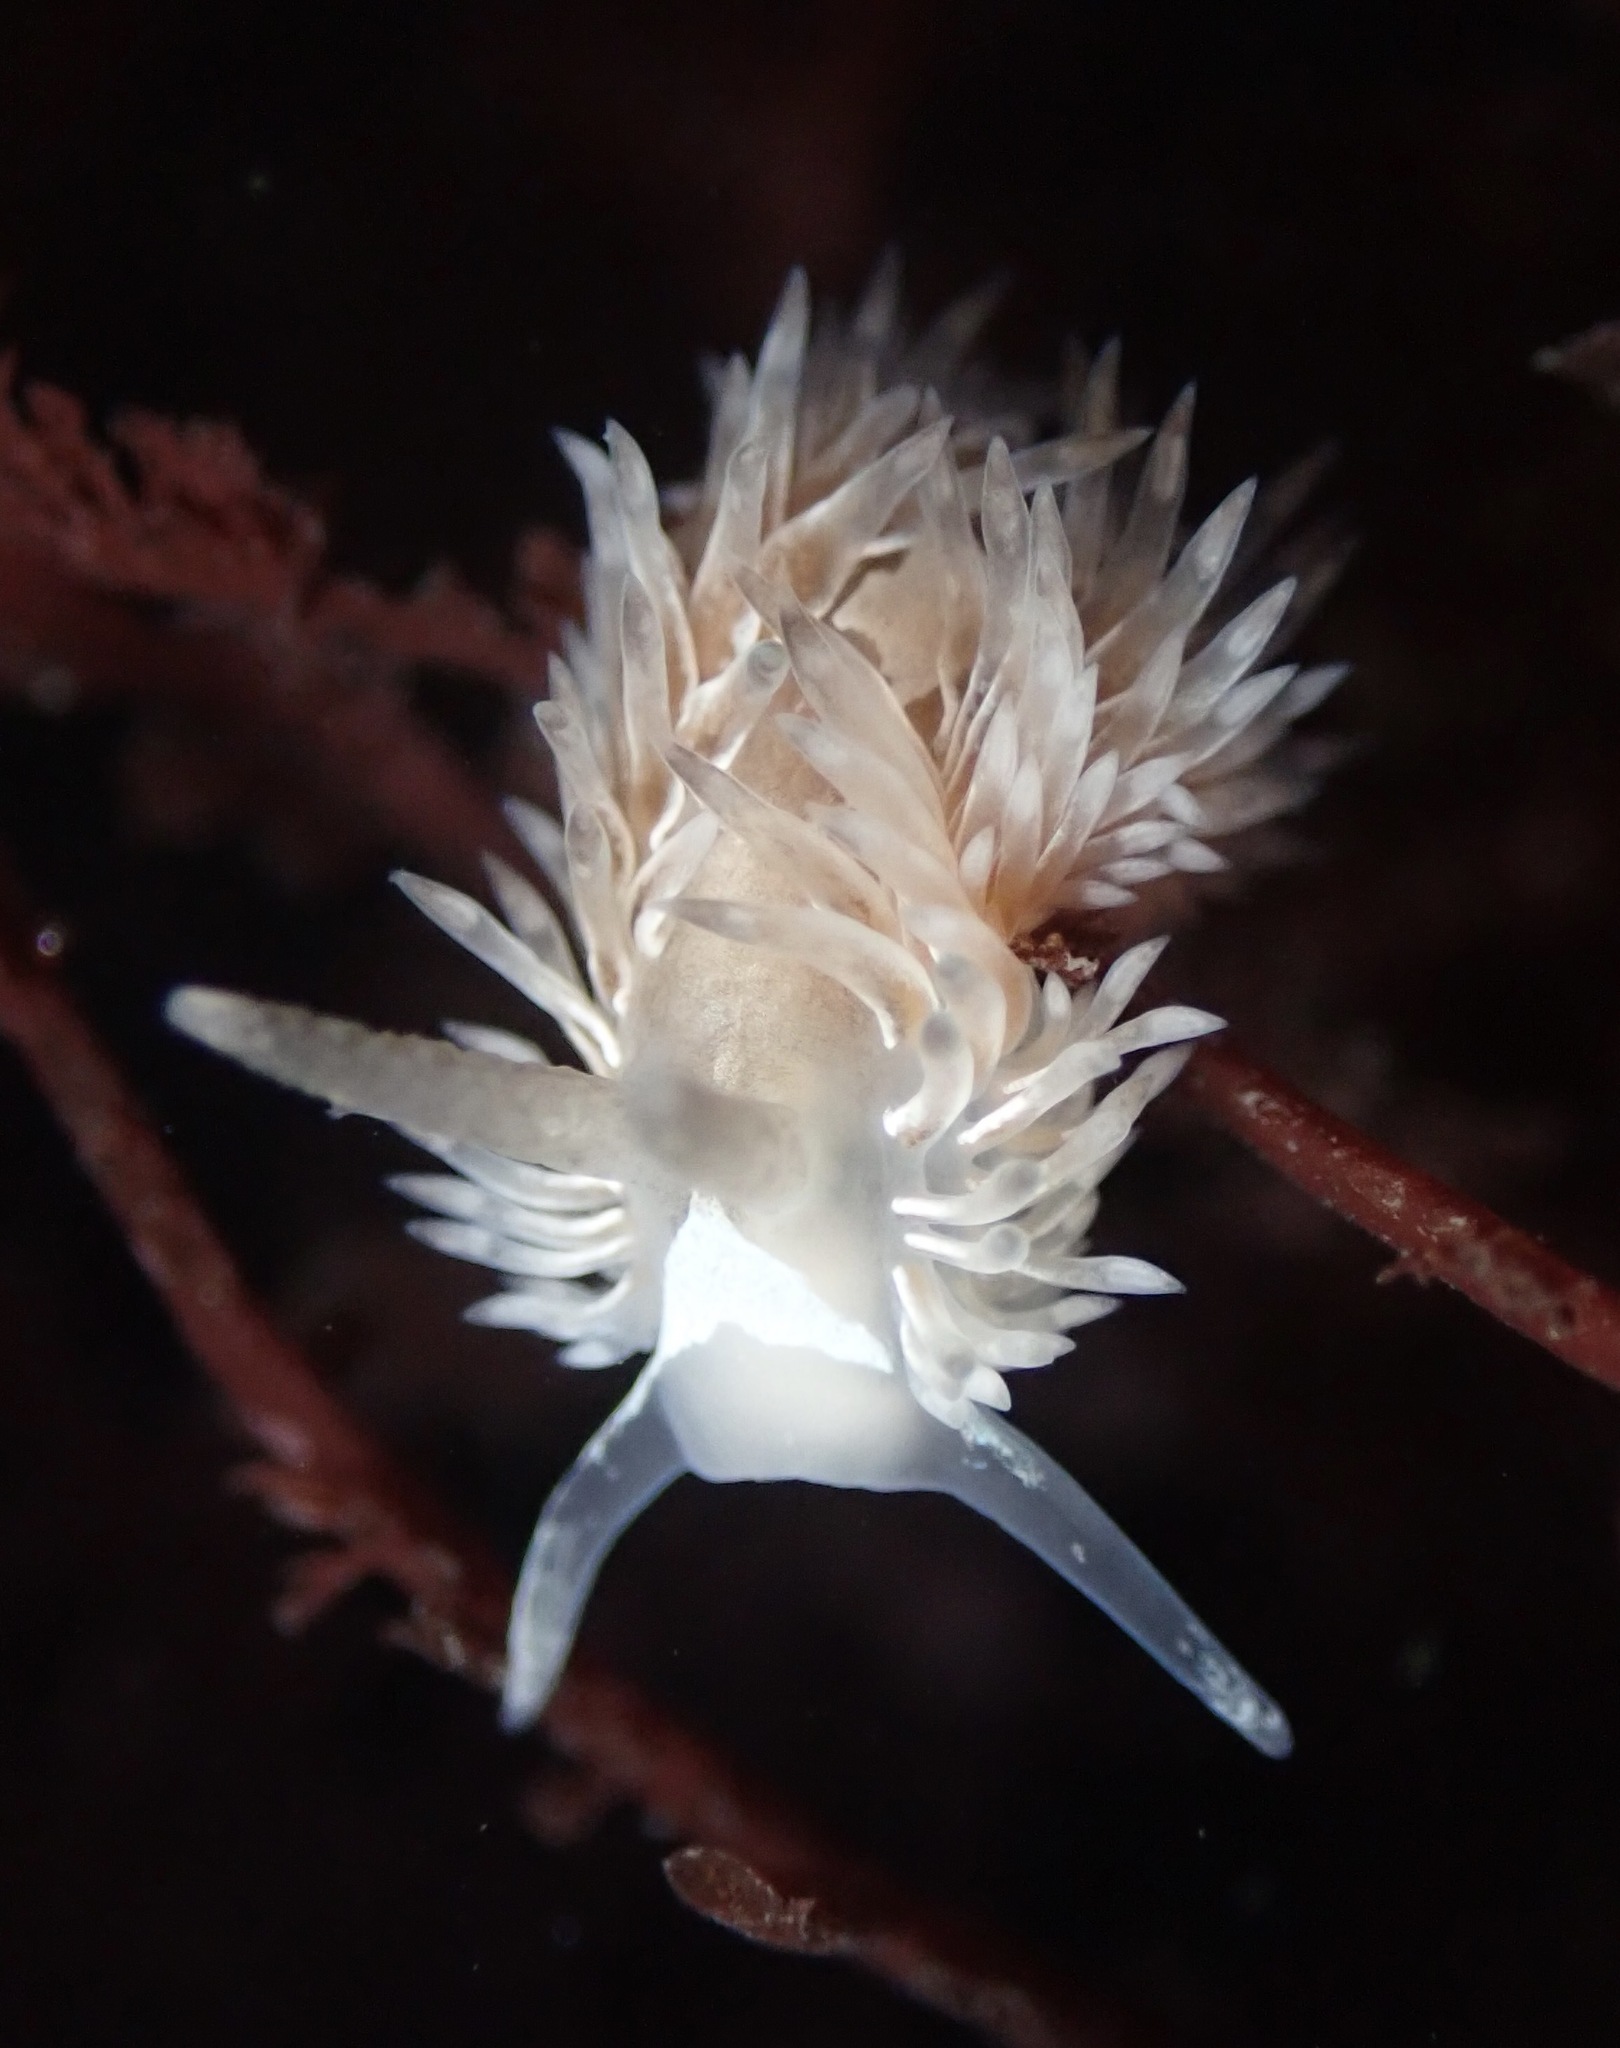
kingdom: Animalia
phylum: Mollusca
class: Gastropoda
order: Nudibranchia
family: Aeolidiidae
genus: Aeolidia
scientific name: Aeolidia loui
